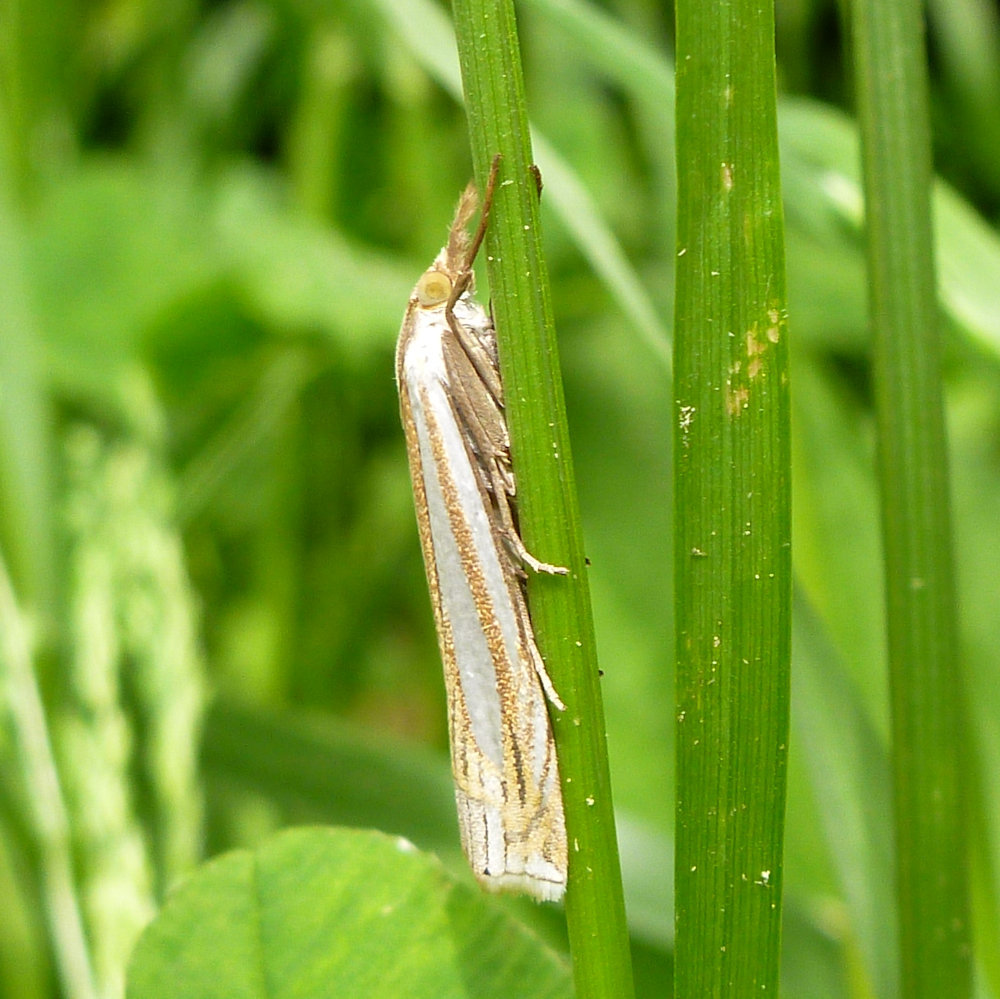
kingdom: Animalia
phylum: Arthropoda
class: Insecta
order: Lepidoptera
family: Crambidae
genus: Crambus
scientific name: Crambus laqueatellus
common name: Eastern grass-veneer
